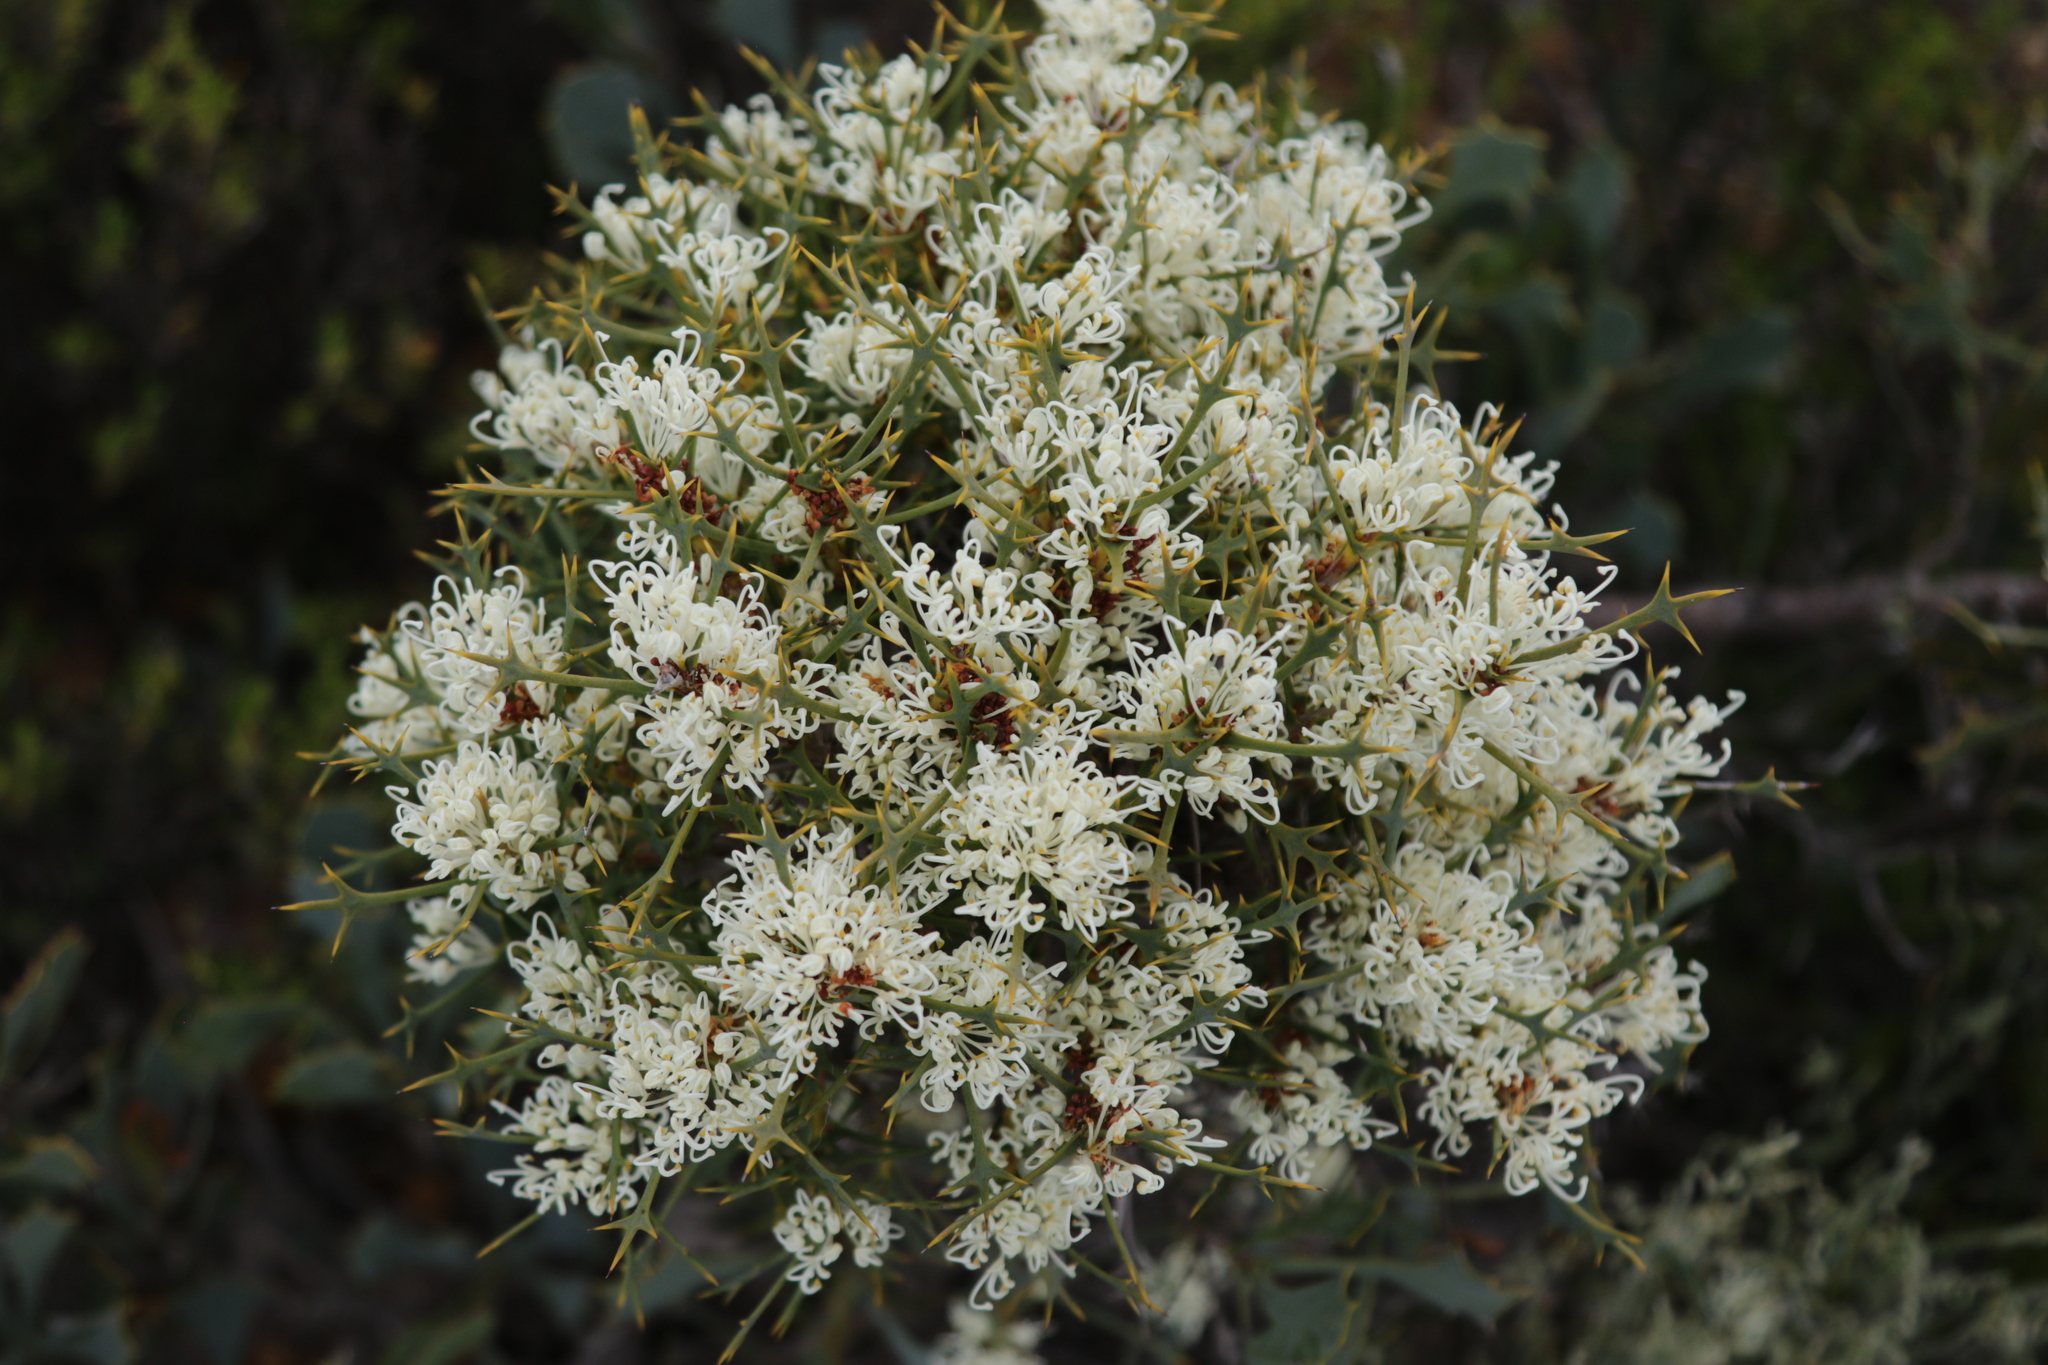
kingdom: Plantae
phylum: Tracheophyta
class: Magnoliopsida
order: Proteales
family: Proteaceae
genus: Hakea
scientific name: Hakea auriculata
